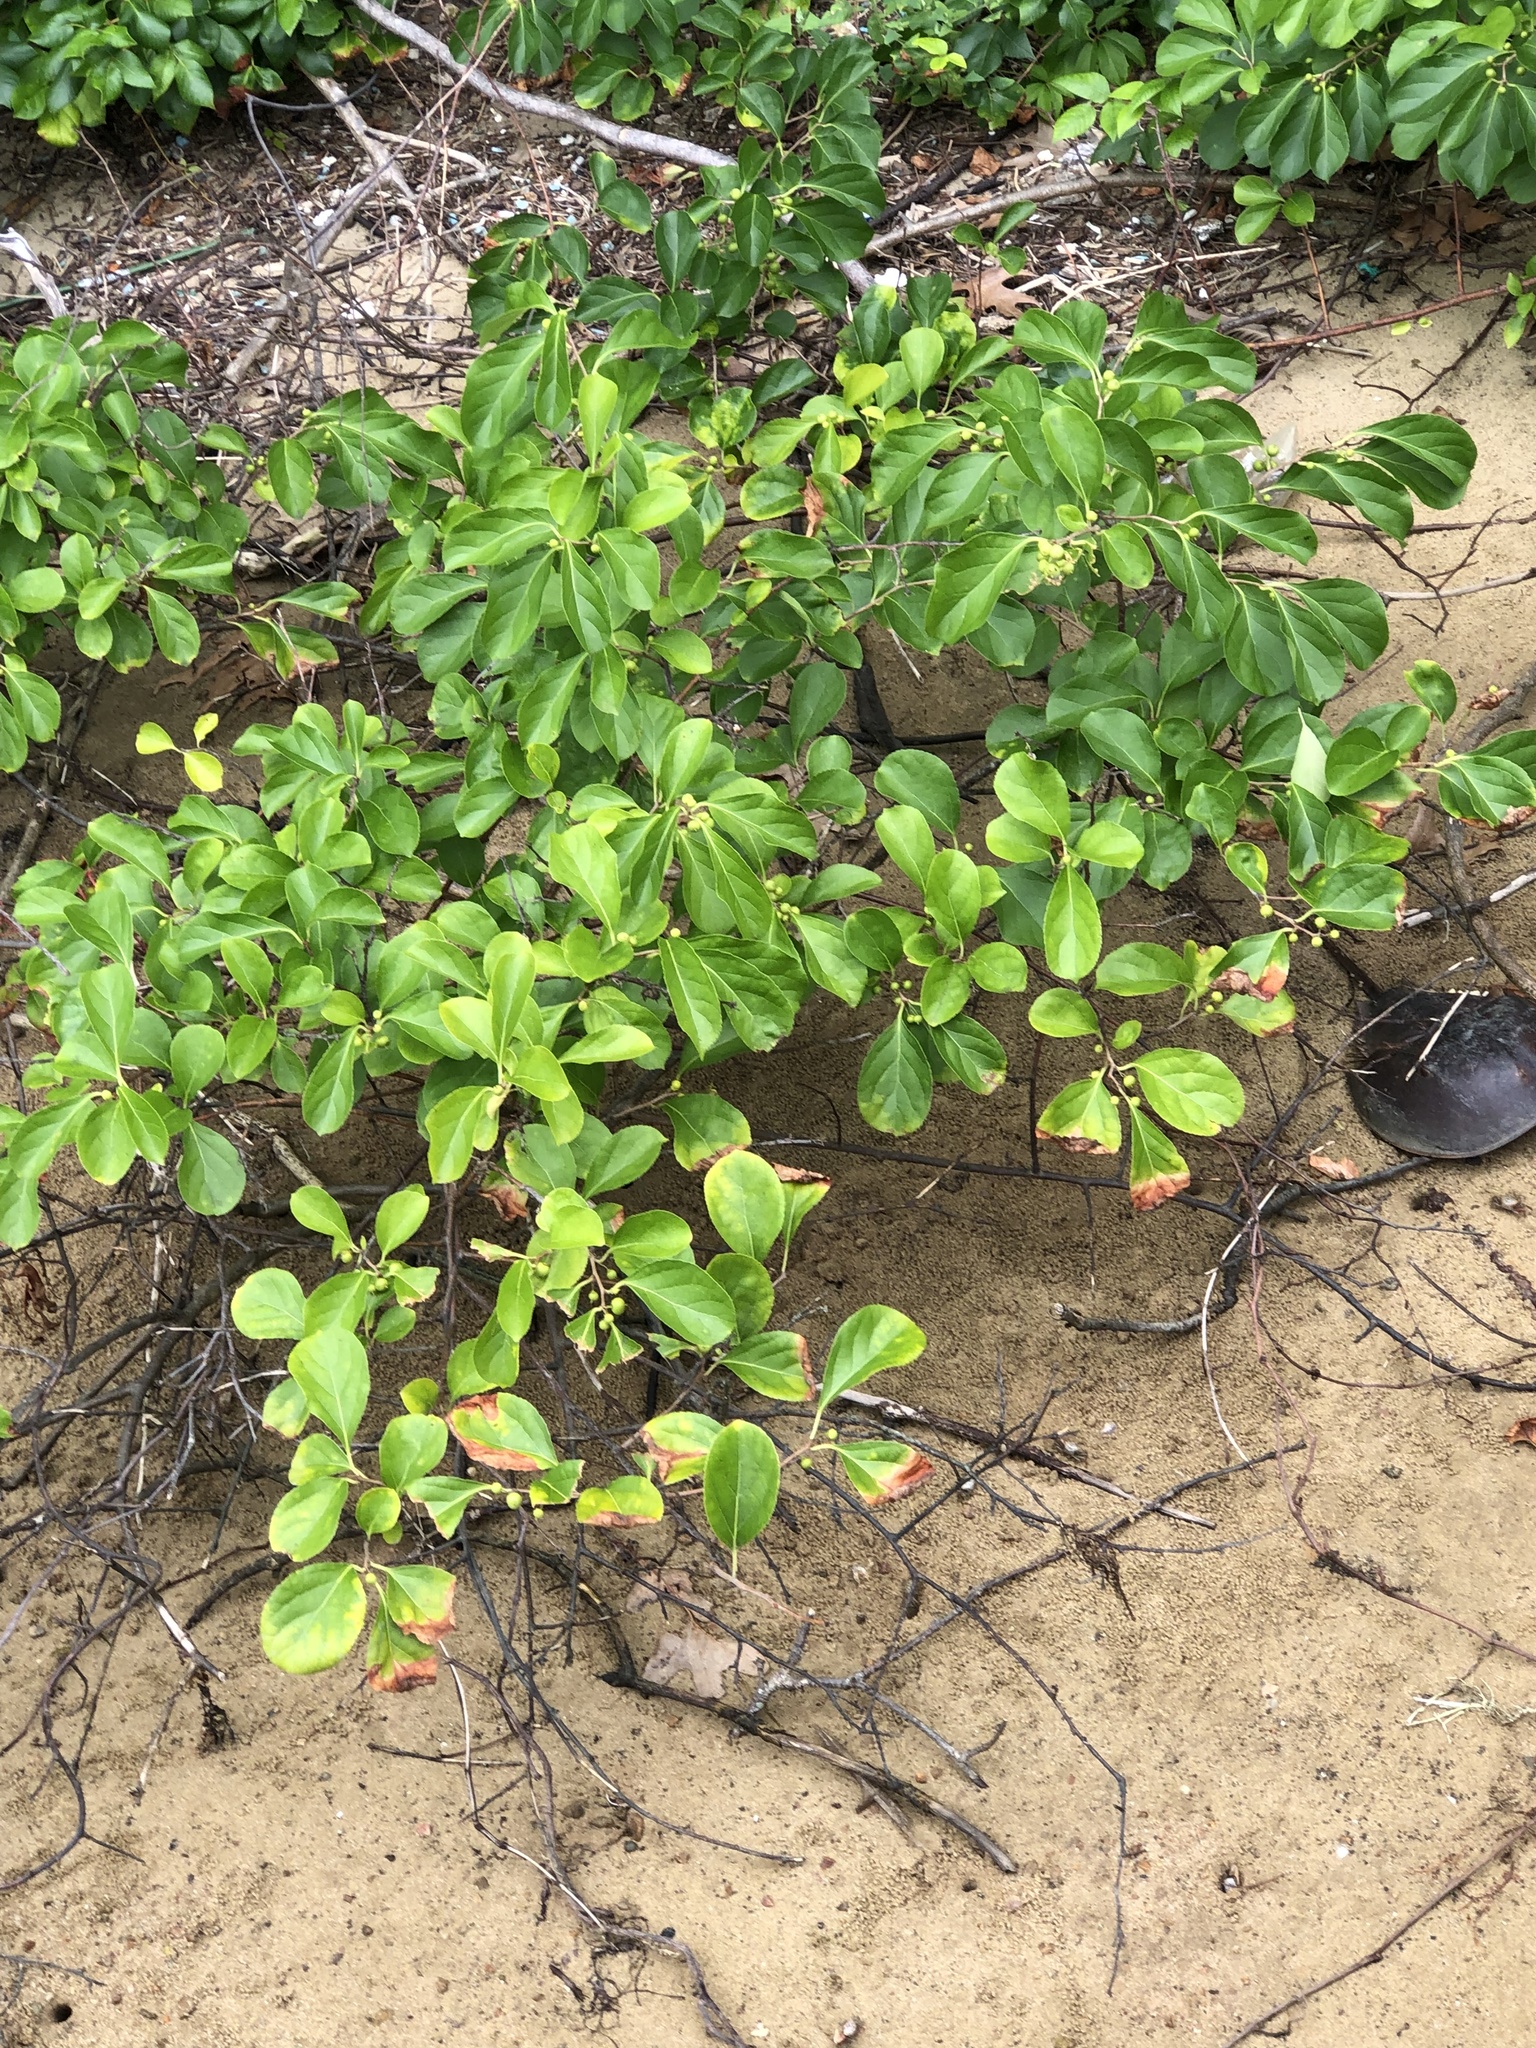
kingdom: Plantae
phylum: Tracheophyta
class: Magnoliopsida
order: Celastrales
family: Celastraceae
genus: Celastrus
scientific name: Celastrus orbiculatus
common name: Oriental bittersweet
